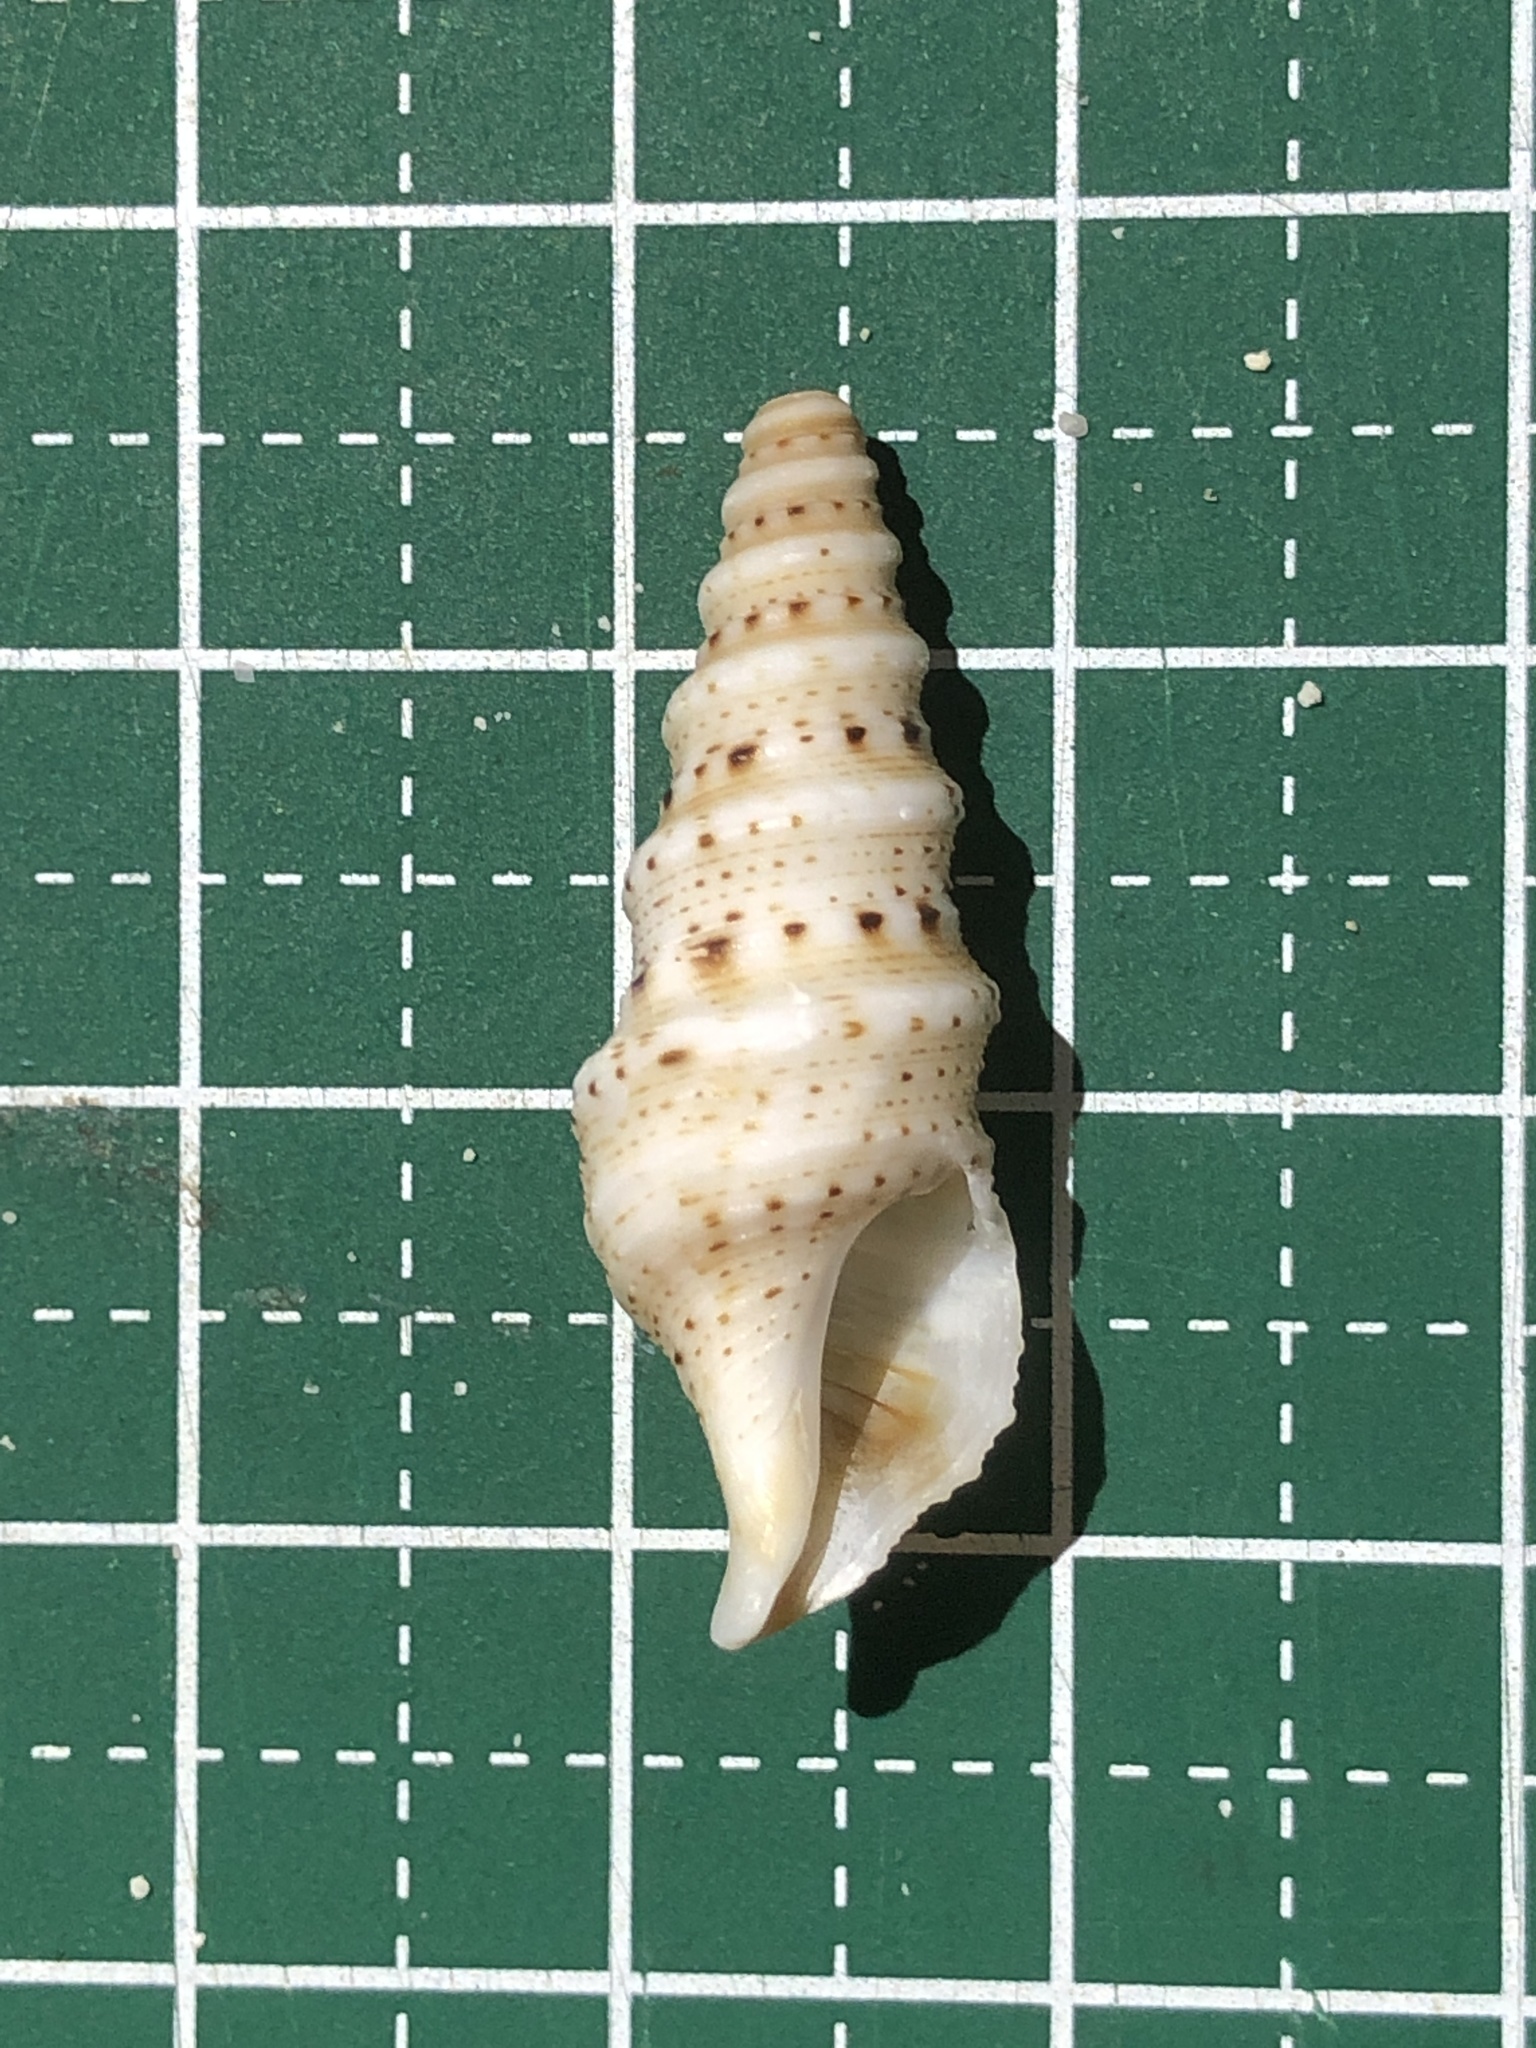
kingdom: Animalia
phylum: Mollusca
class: Gastropoda
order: Neogastropoda
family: Turridae
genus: Lophiotoma
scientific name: Lophiotoma acuta
